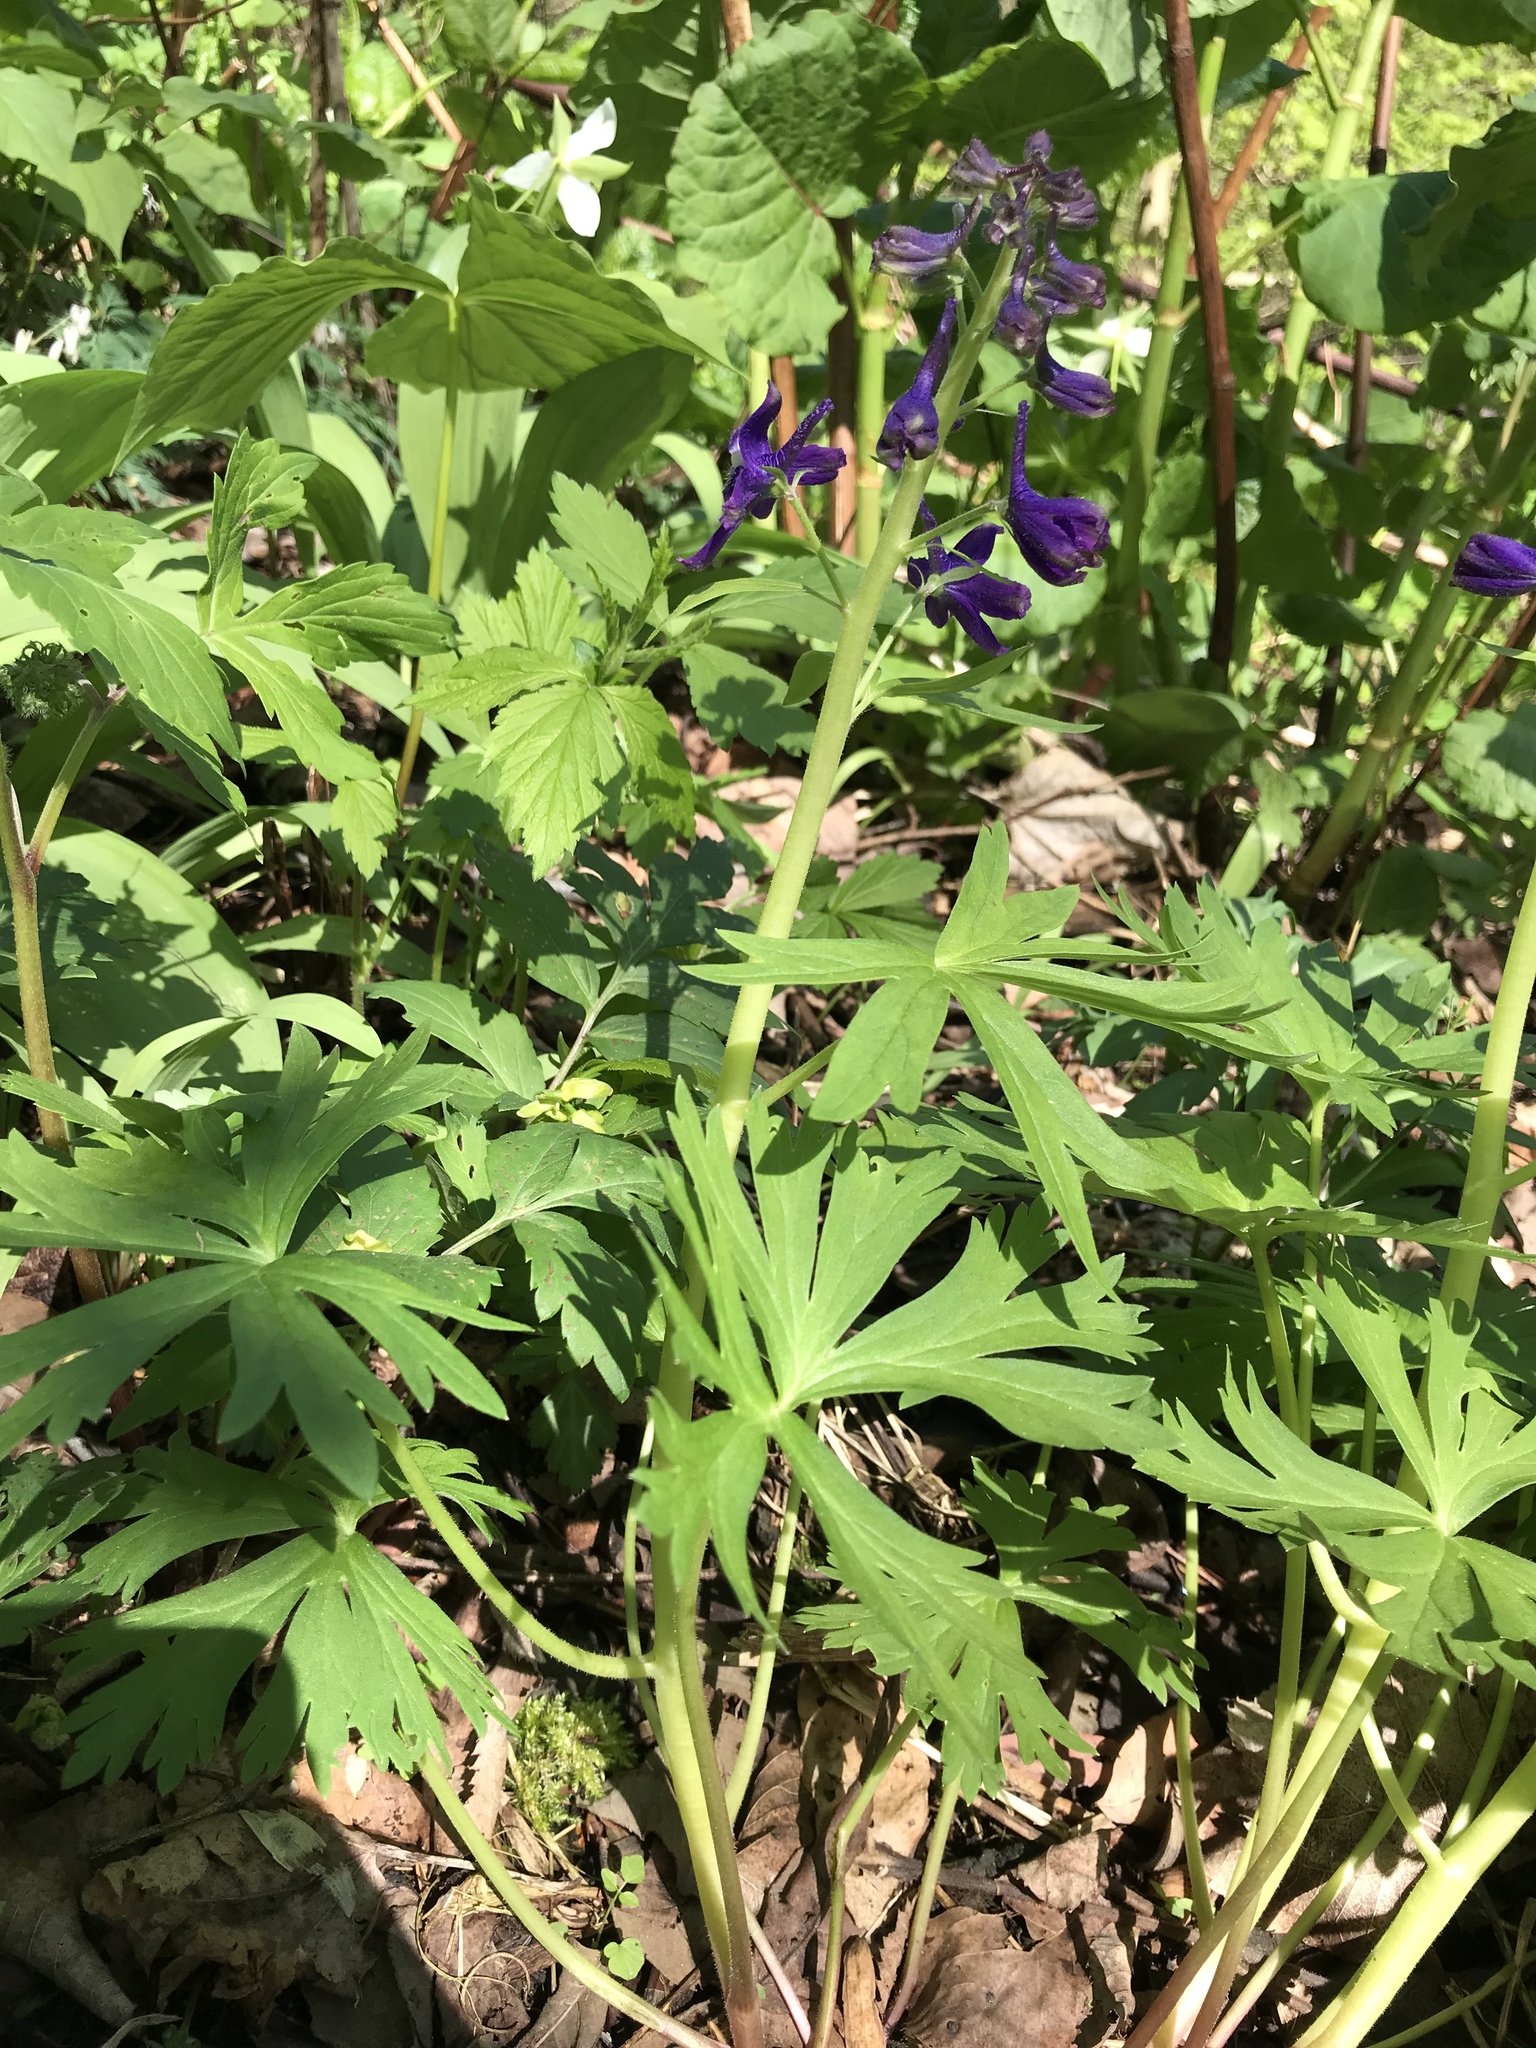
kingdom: Plantae
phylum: Tracheophyta
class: Magnoliopsida
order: Ranunculales
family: Ranunculaceae
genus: Delphinium
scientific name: Delphinium tricorne
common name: Dwarf larkspur
